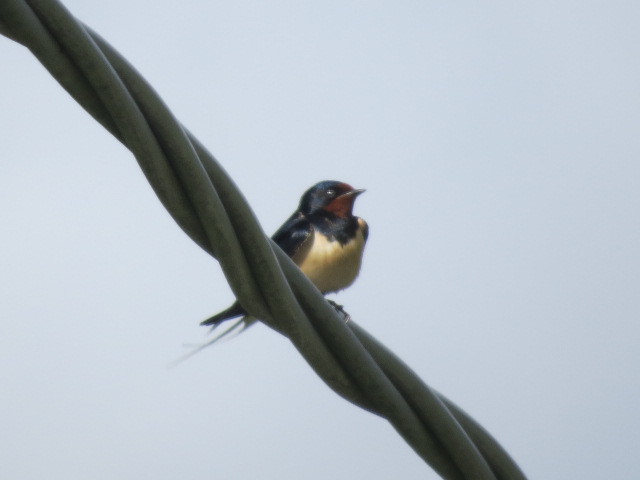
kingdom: Animalia
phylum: Chordata
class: Aves
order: Passeriformes
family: Hirundinidae
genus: Hirundo
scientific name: Hirundo rustica
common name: Barn swallow
